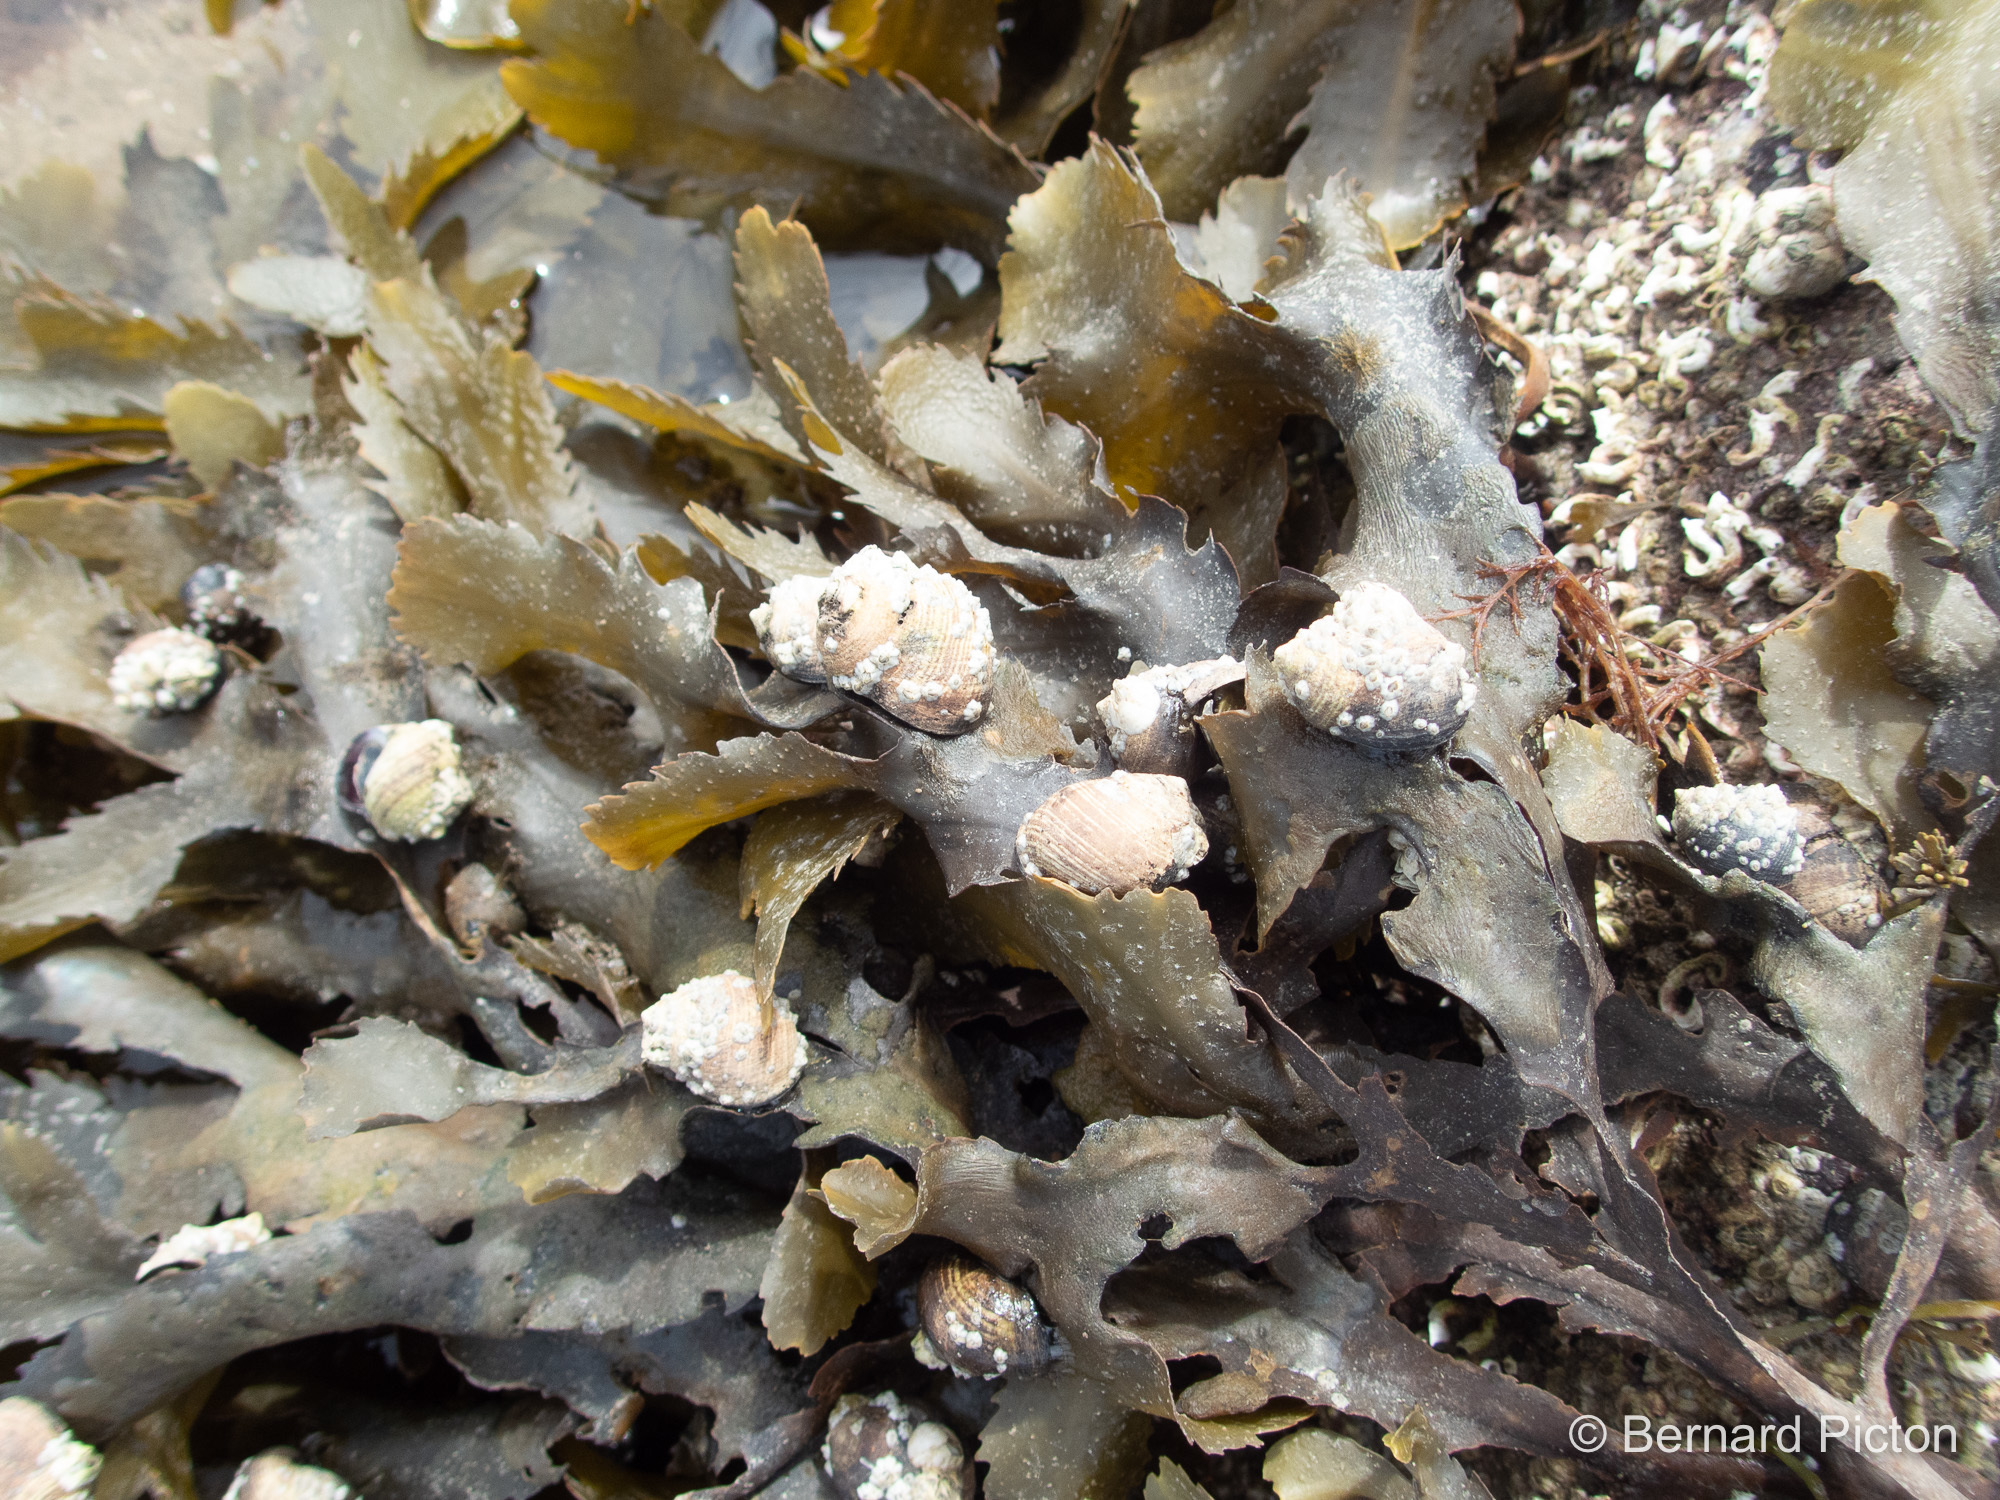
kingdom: Chromista
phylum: Ochrophyta
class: Phaeophyceae
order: Fucales
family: Fucaceae
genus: Fucus
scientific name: Fucus serratus
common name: Toothed wrack
